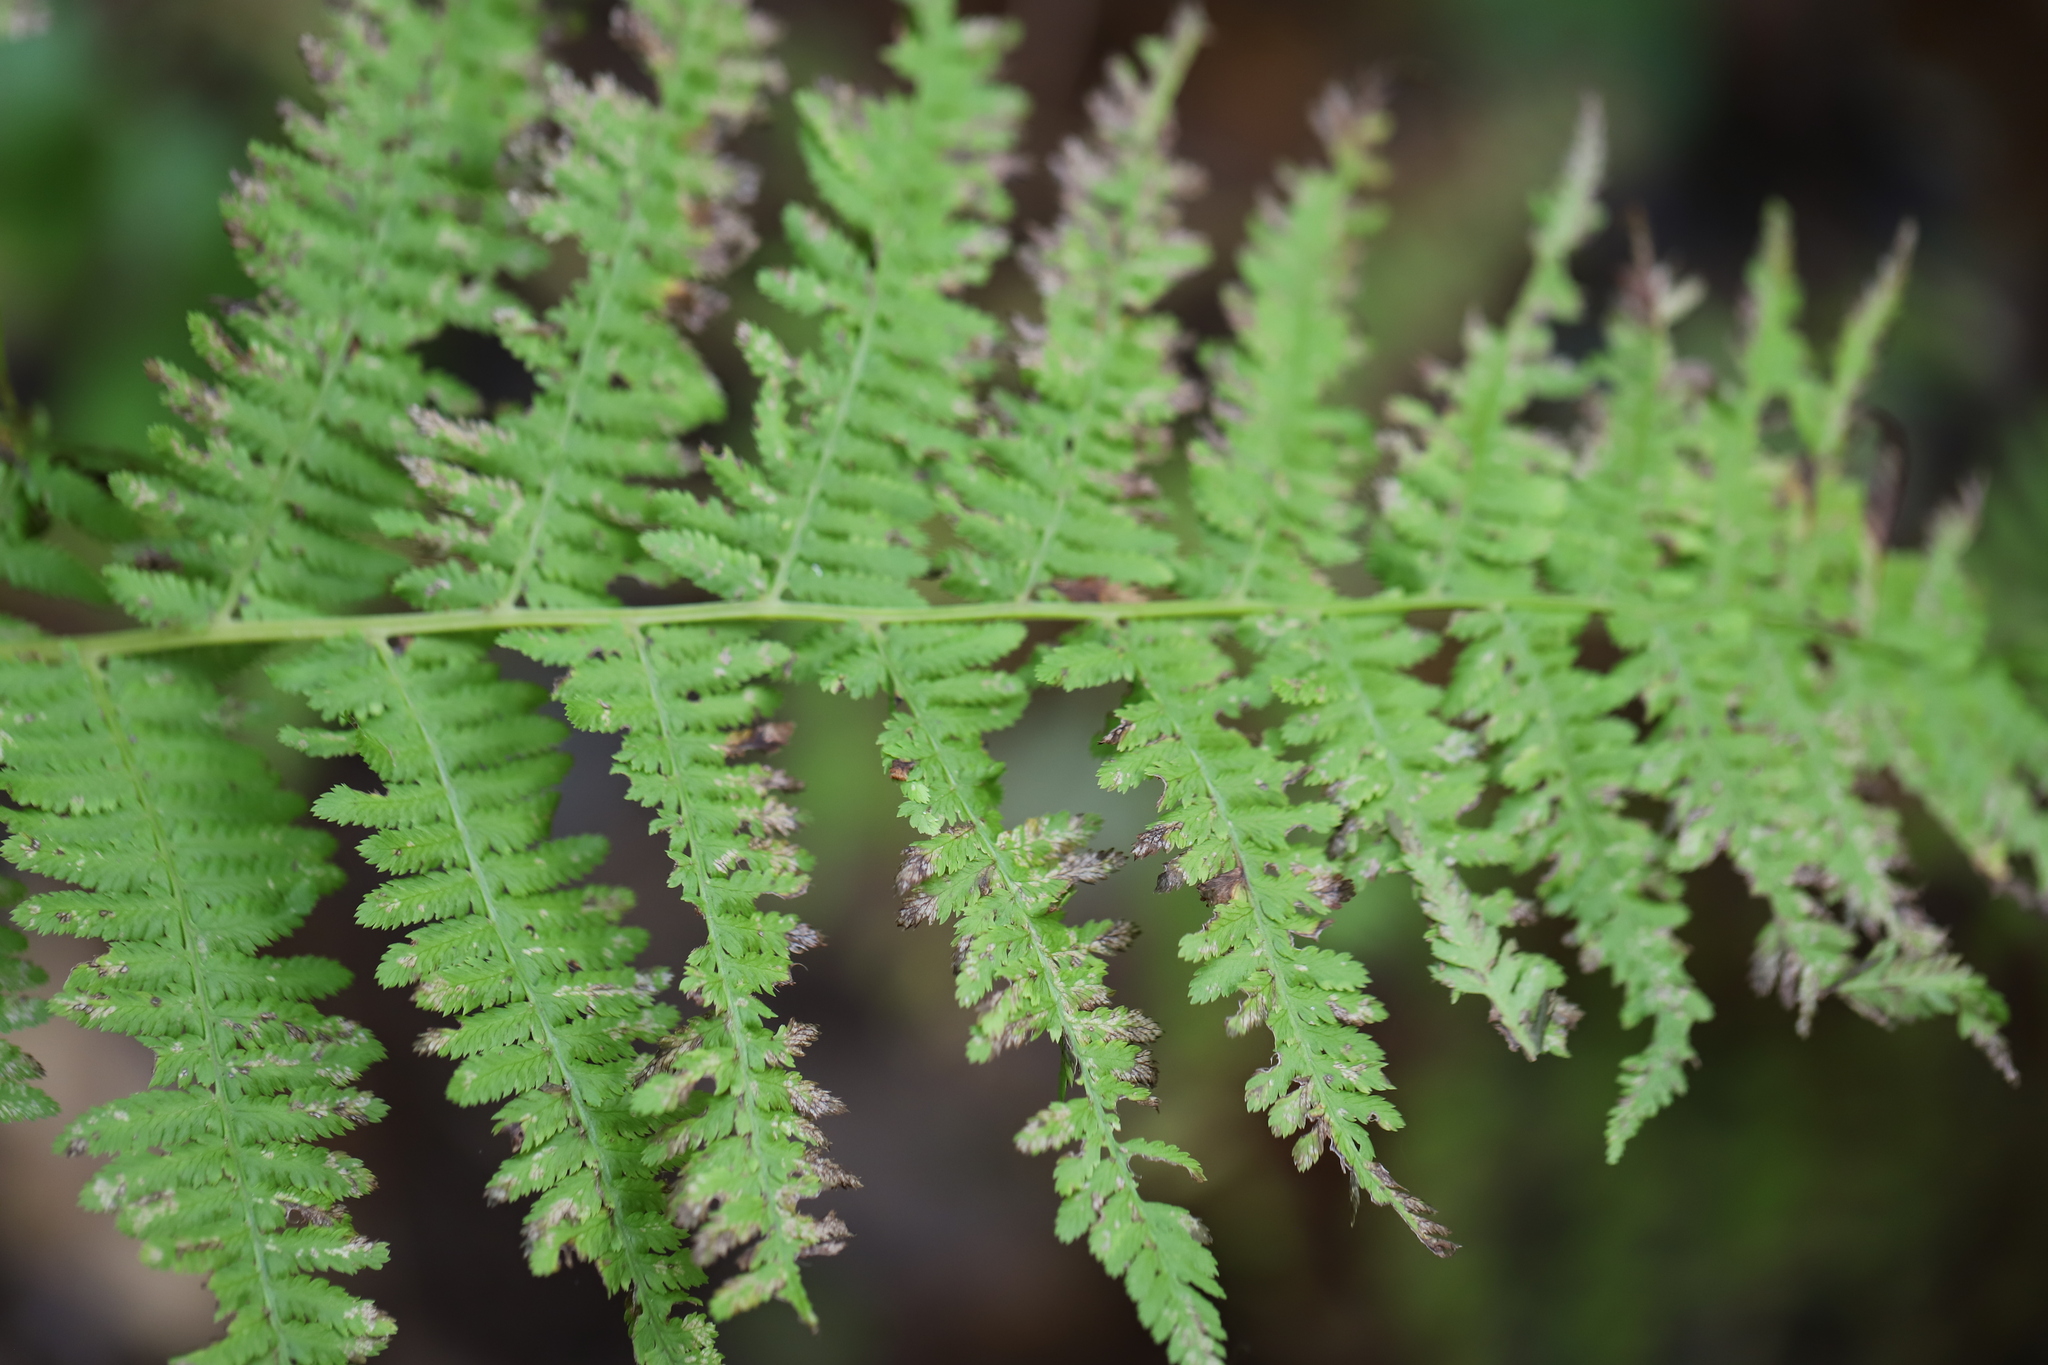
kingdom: Plantae
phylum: Tracheophyta
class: Polypodiopsida
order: Polypodiales
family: Athyriaceae
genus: Athyrium
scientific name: Athyrium angustum
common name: Northern lady fern
